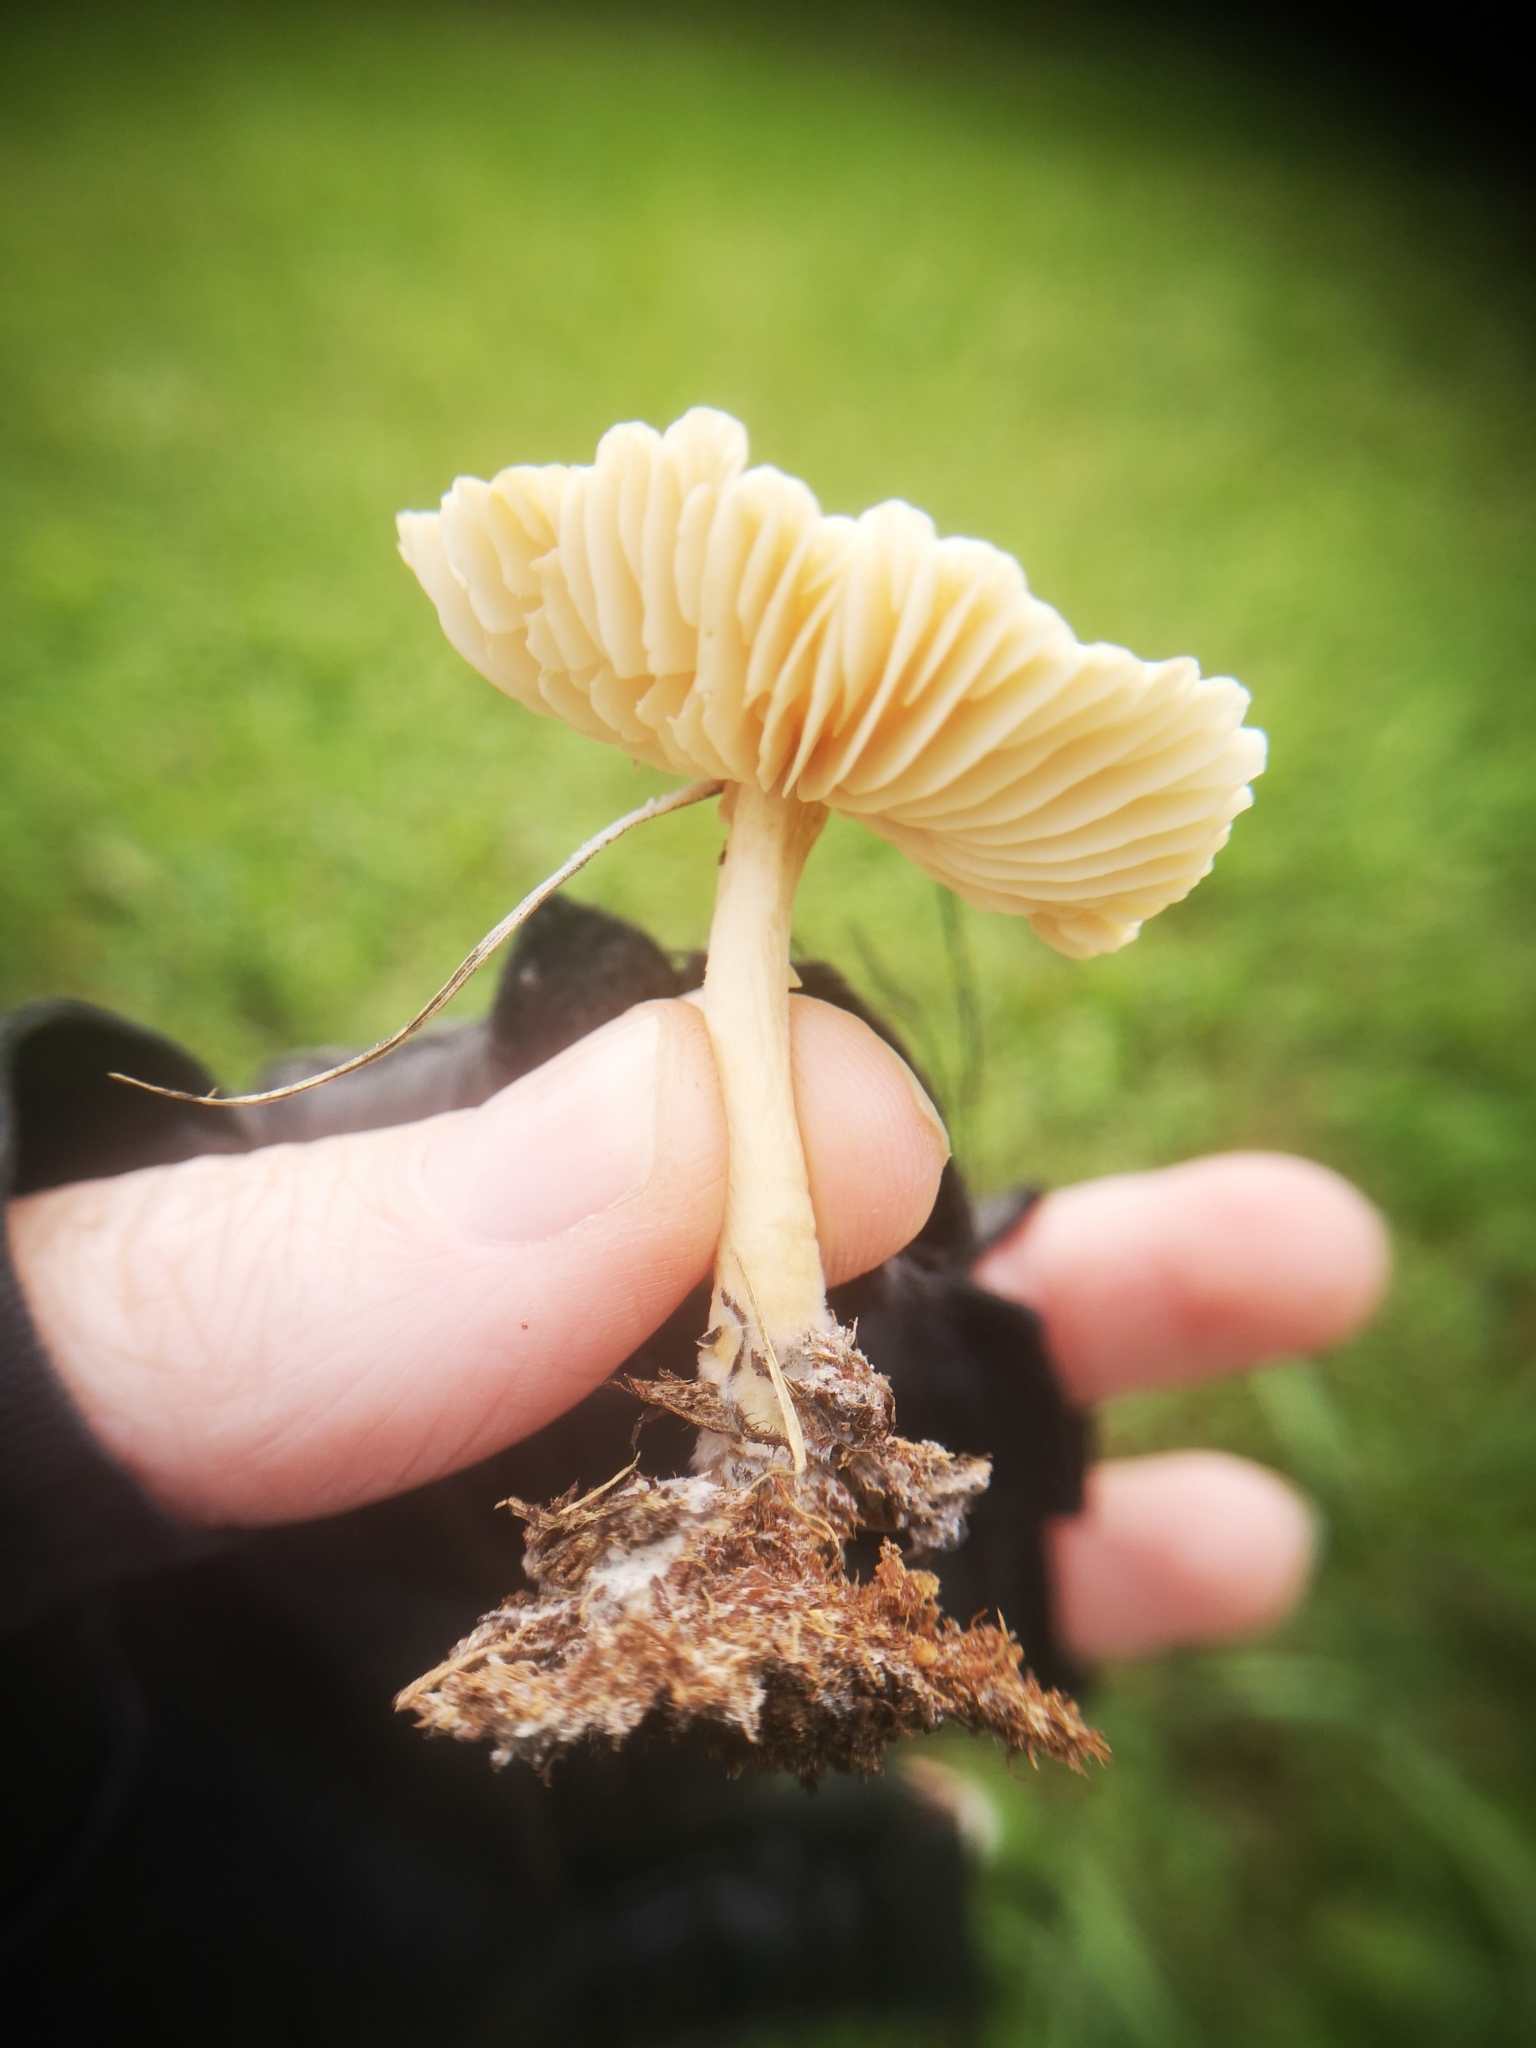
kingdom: Fungi
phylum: Basidiomycota
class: Agaricomycetes
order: Agaricales
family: Marasmiaceae
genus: Marasmius
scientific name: Marasmius oreades
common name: Fairy ring champignon
